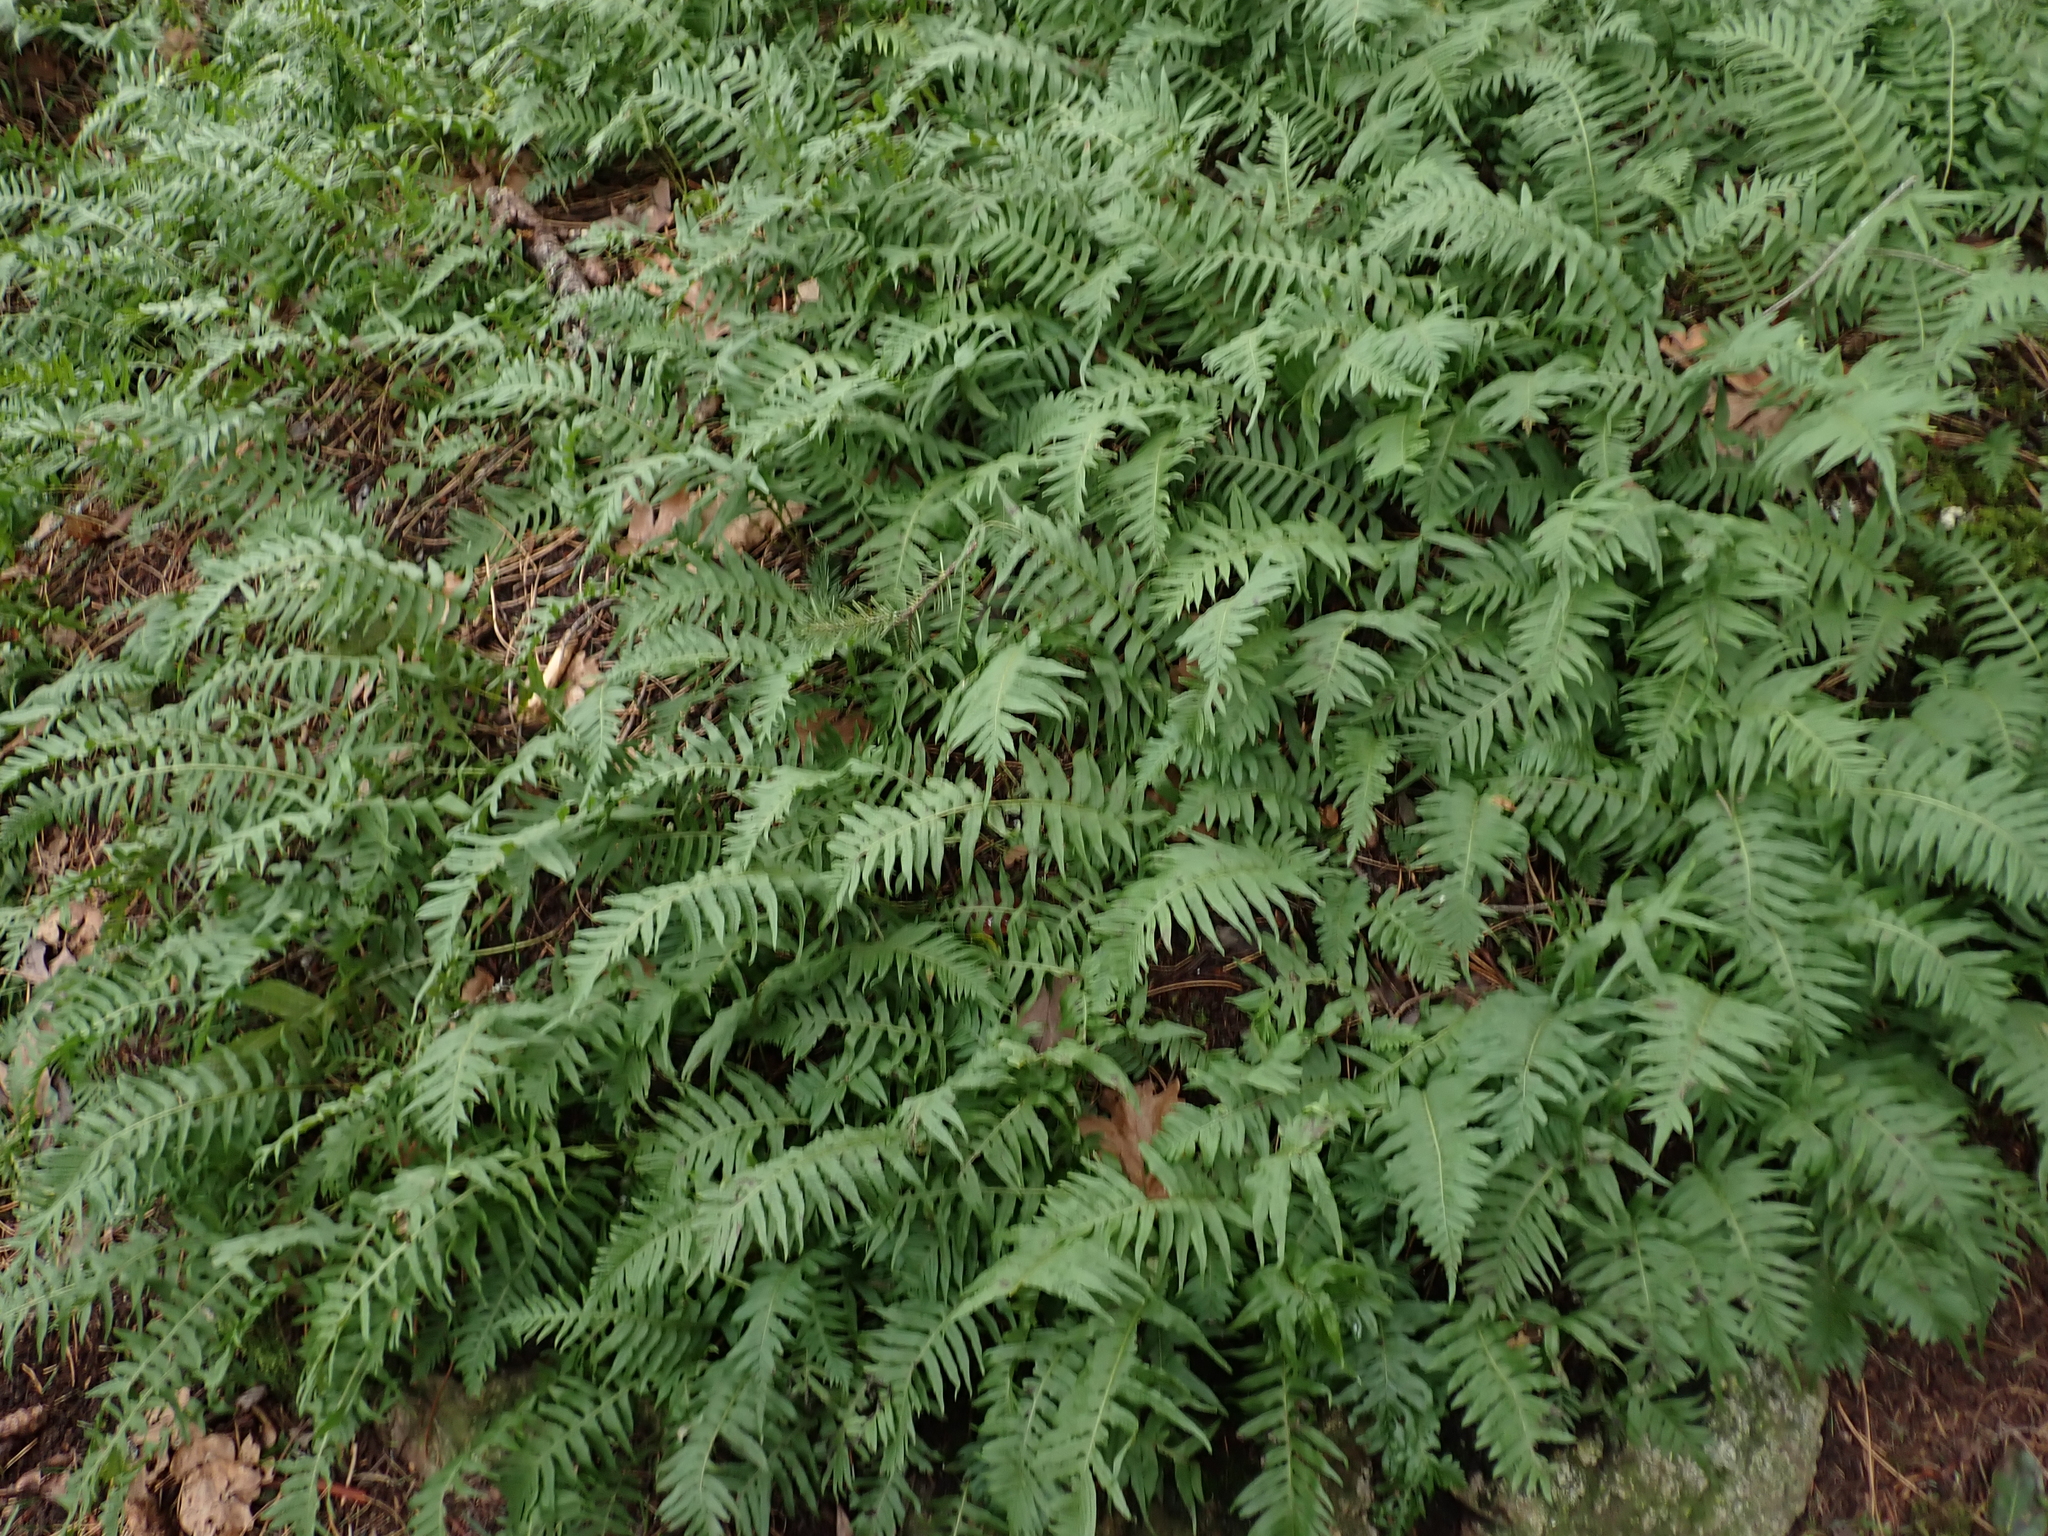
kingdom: Plantae
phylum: Tracheophyta
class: Polypodiopsida
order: Polypodiales
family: Polypodiaceae
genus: Polypodium
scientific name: Polypodium glycyrrhiza
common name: Licorice fern
